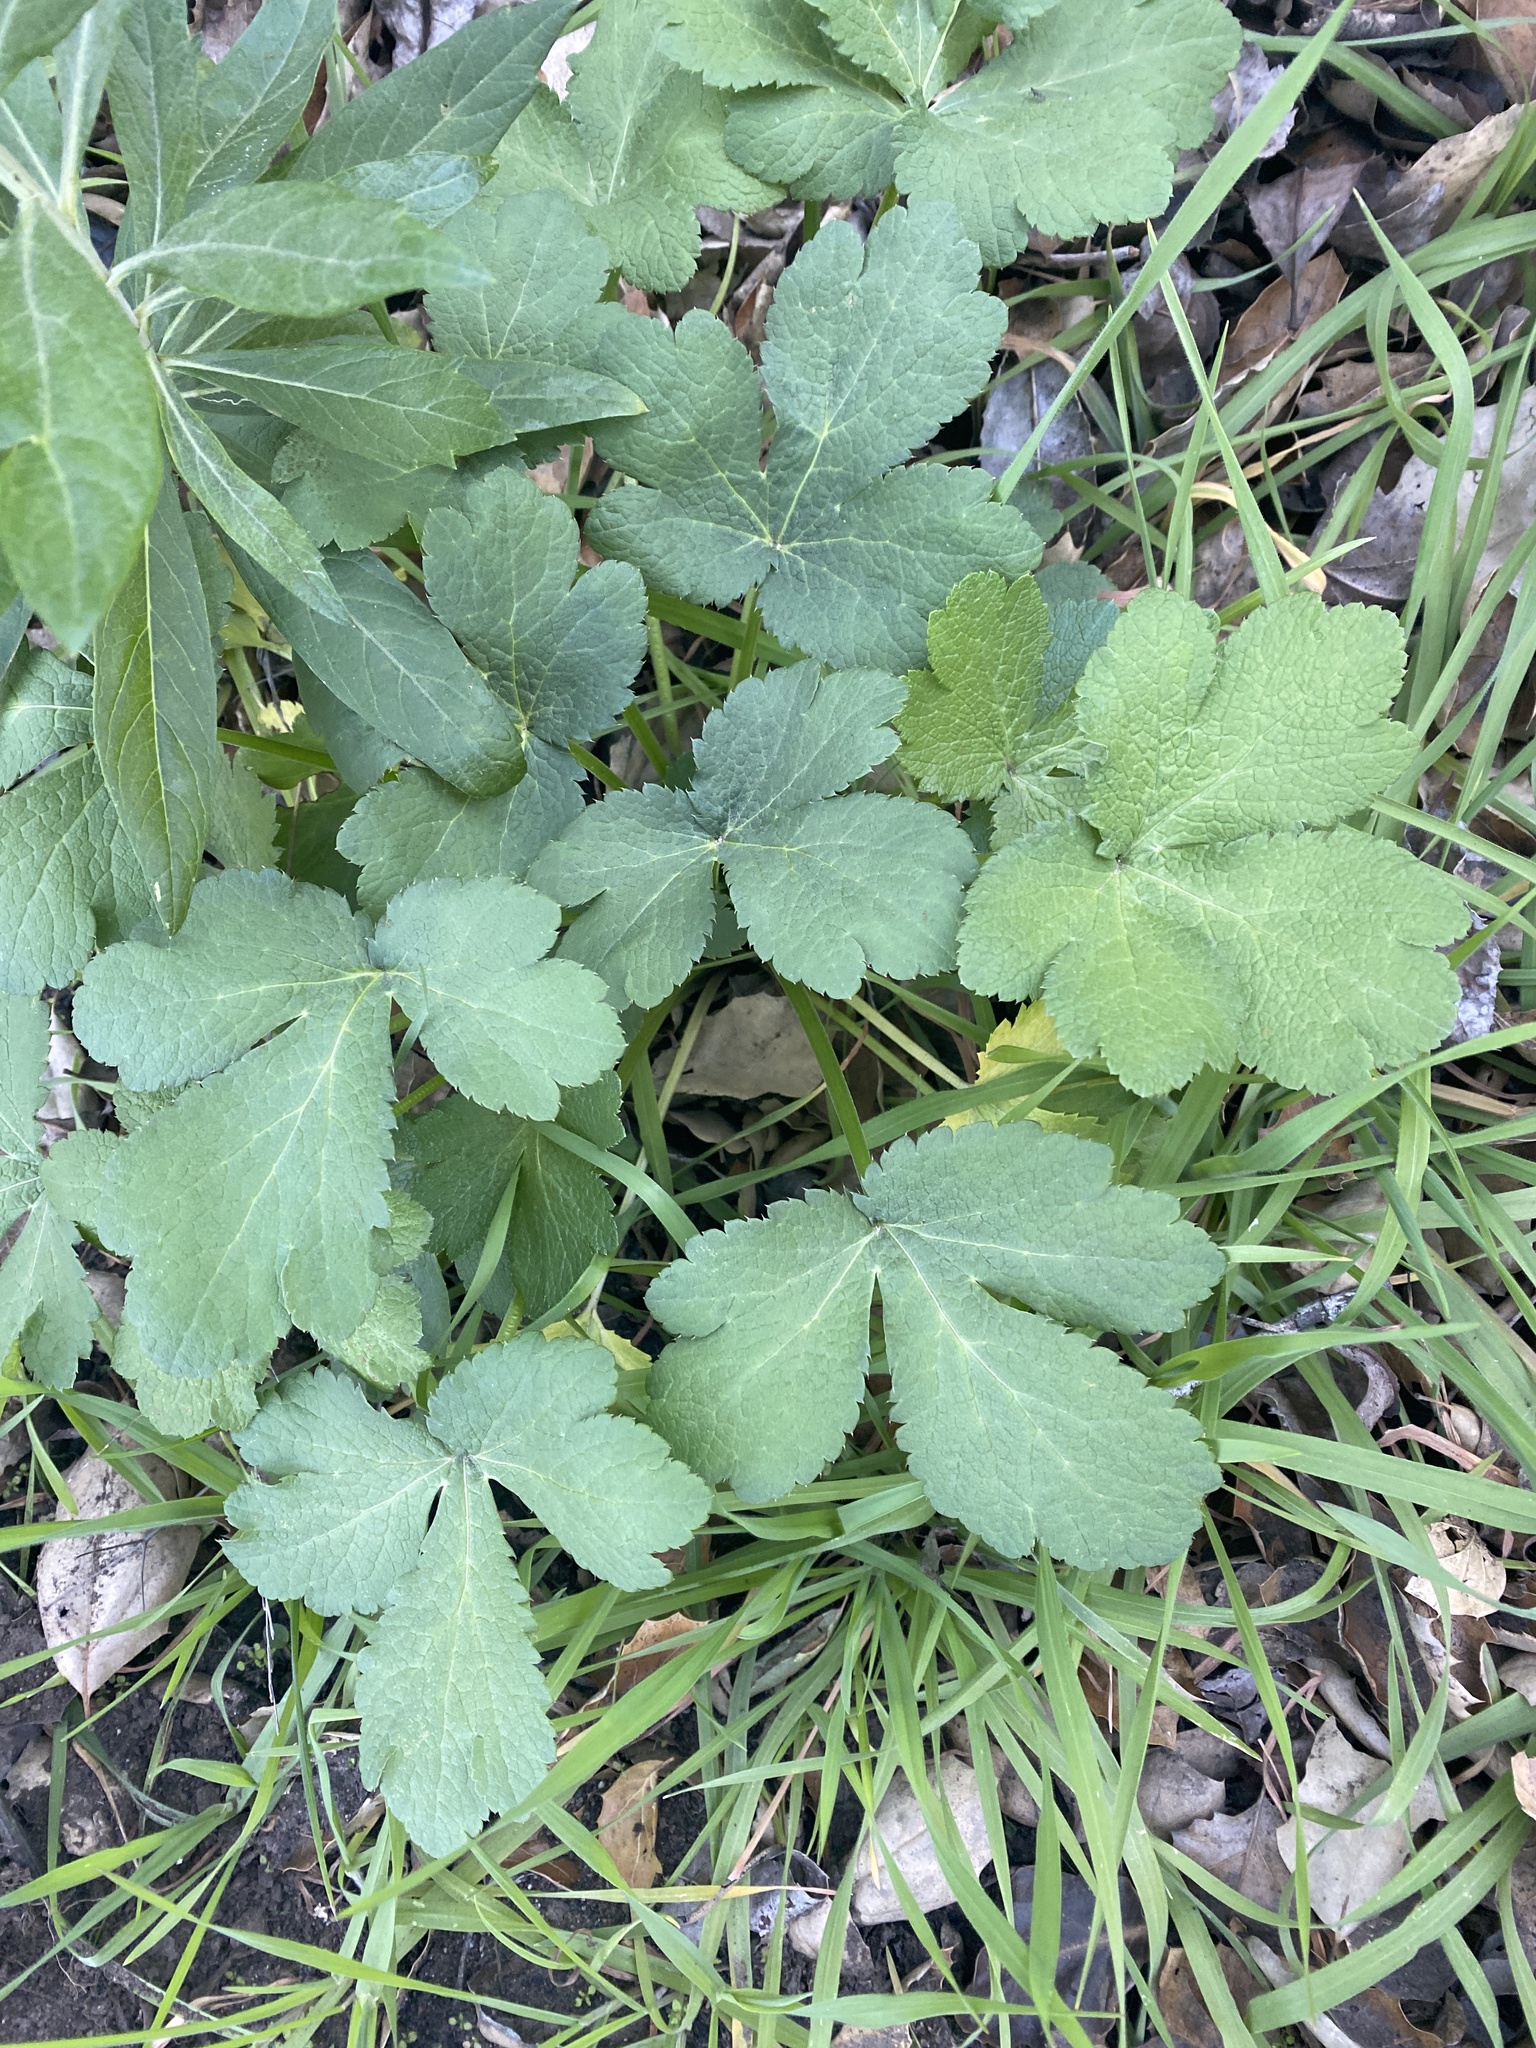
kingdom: Plantae
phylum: Tracheophyta
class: Magnoliopsida
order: Apiales
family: Apiaceae
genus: Sanicula
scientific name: Sanicula crassicaulis
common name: Western snakeroot
